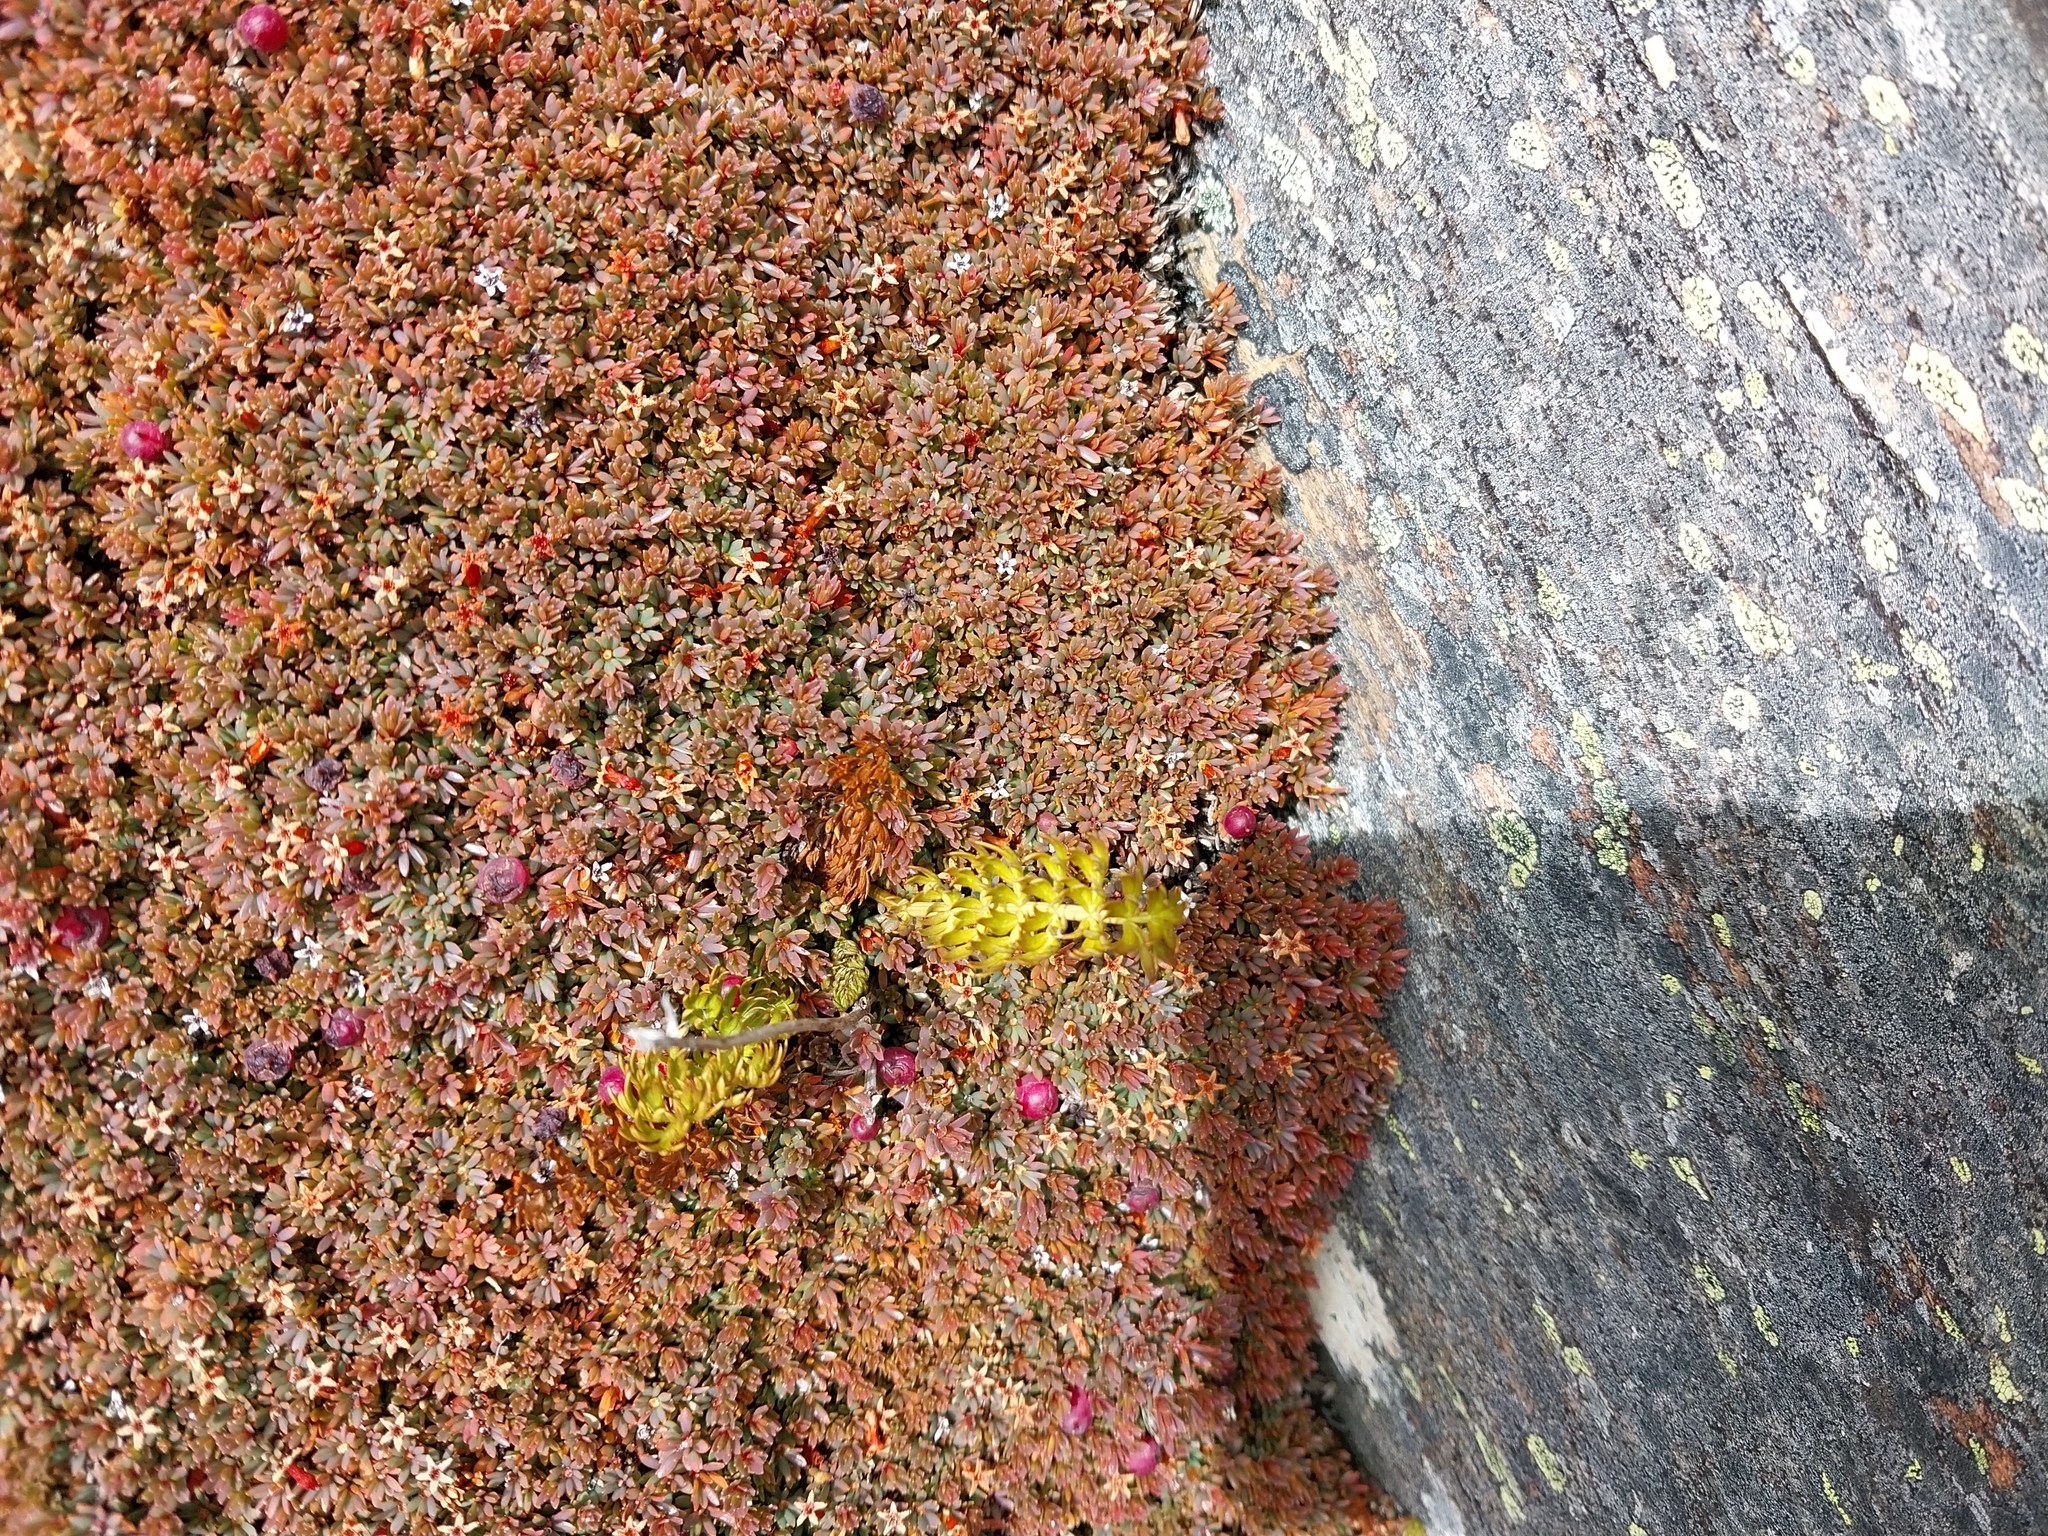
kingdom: Plantae
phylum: Tracheophyta
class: Magnoliopsida
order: Ericales
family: Ericaceae
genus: Pentachondra
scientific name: Pentachondra pumila
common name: Carpet-heath
